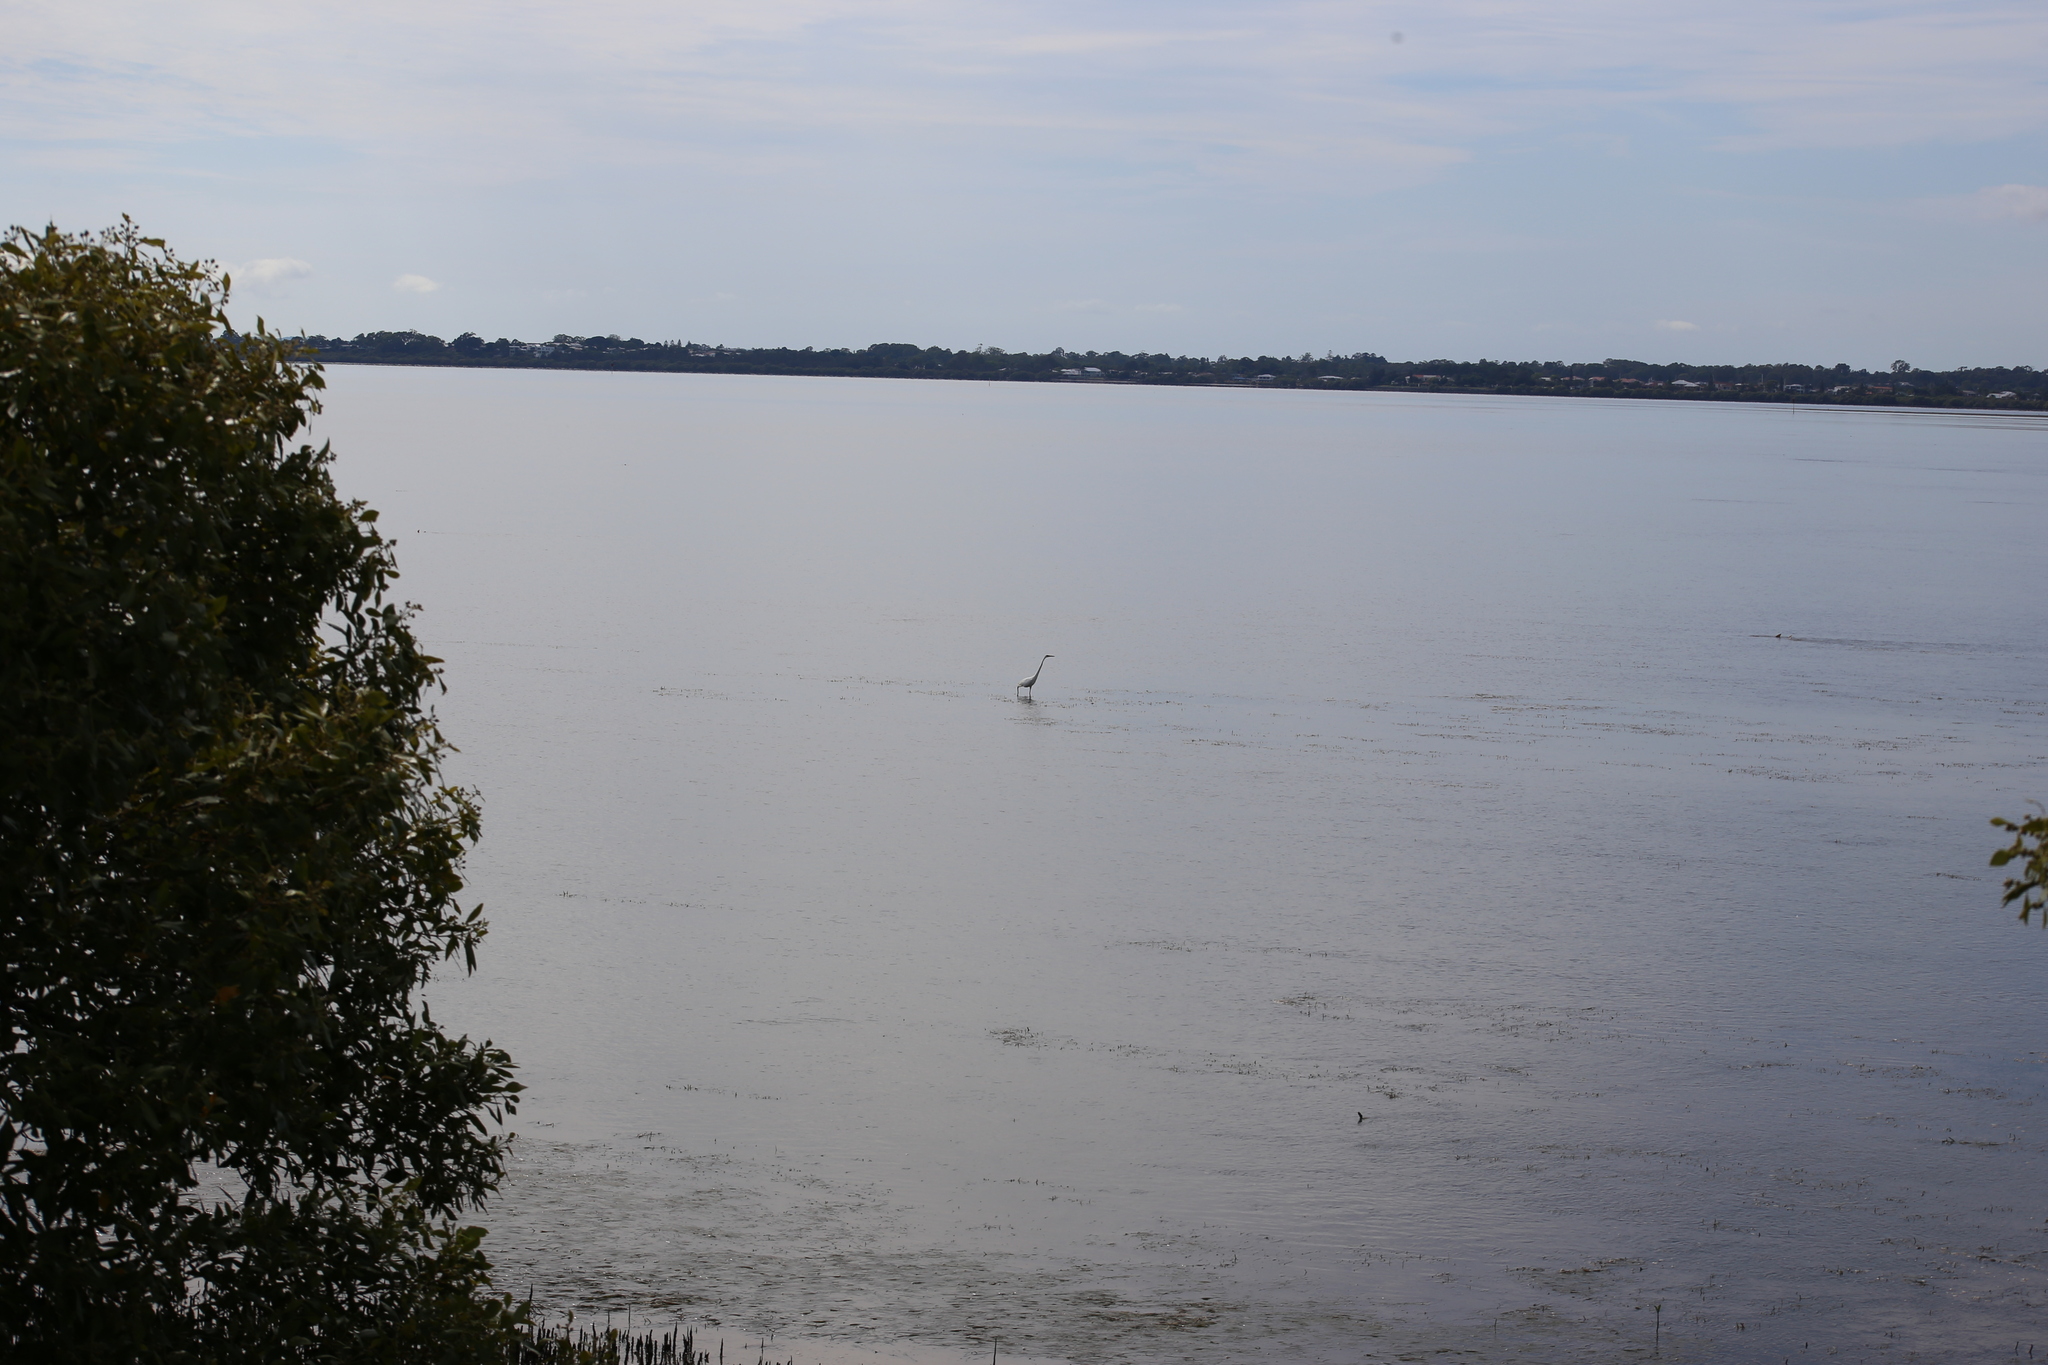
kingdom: Animalia
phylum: Chordata
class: Aves
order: Pelecaniformes
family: Ardeidae
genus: Ardea
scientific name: Ardea alba
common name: Great egret
